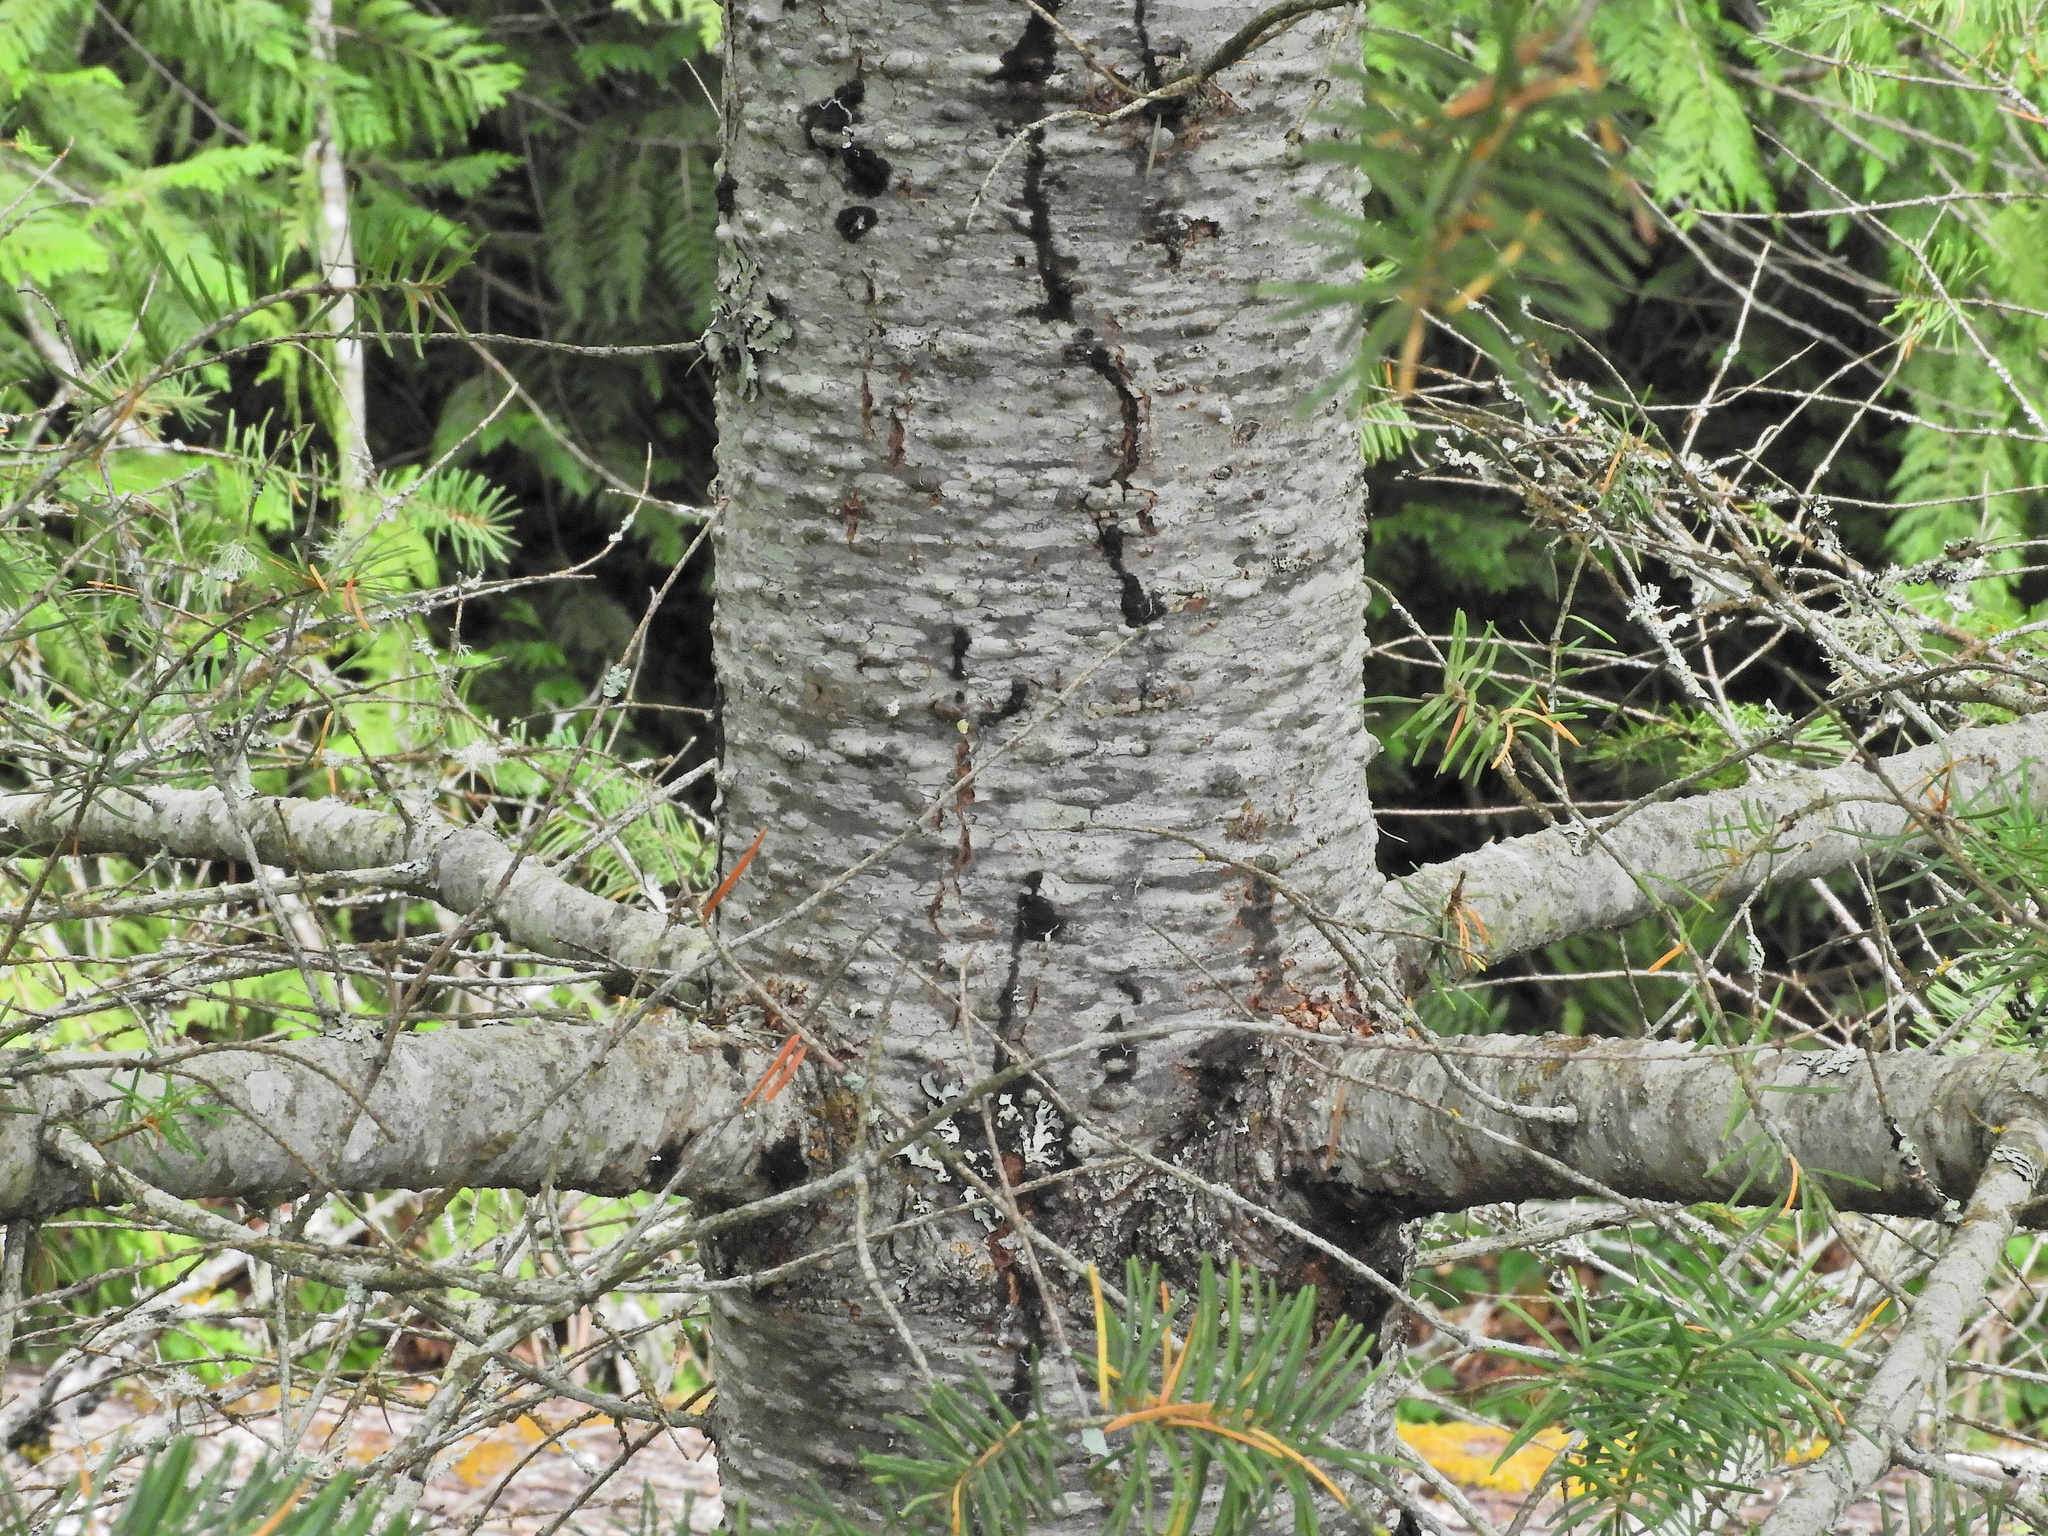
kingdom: Plantae
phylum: Tracheophyta
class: Pinopsida
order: Pinales
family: Pinaceae
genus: Pseudotsuga
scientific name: Pseudotsuga menziesii
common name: Douglas fir
